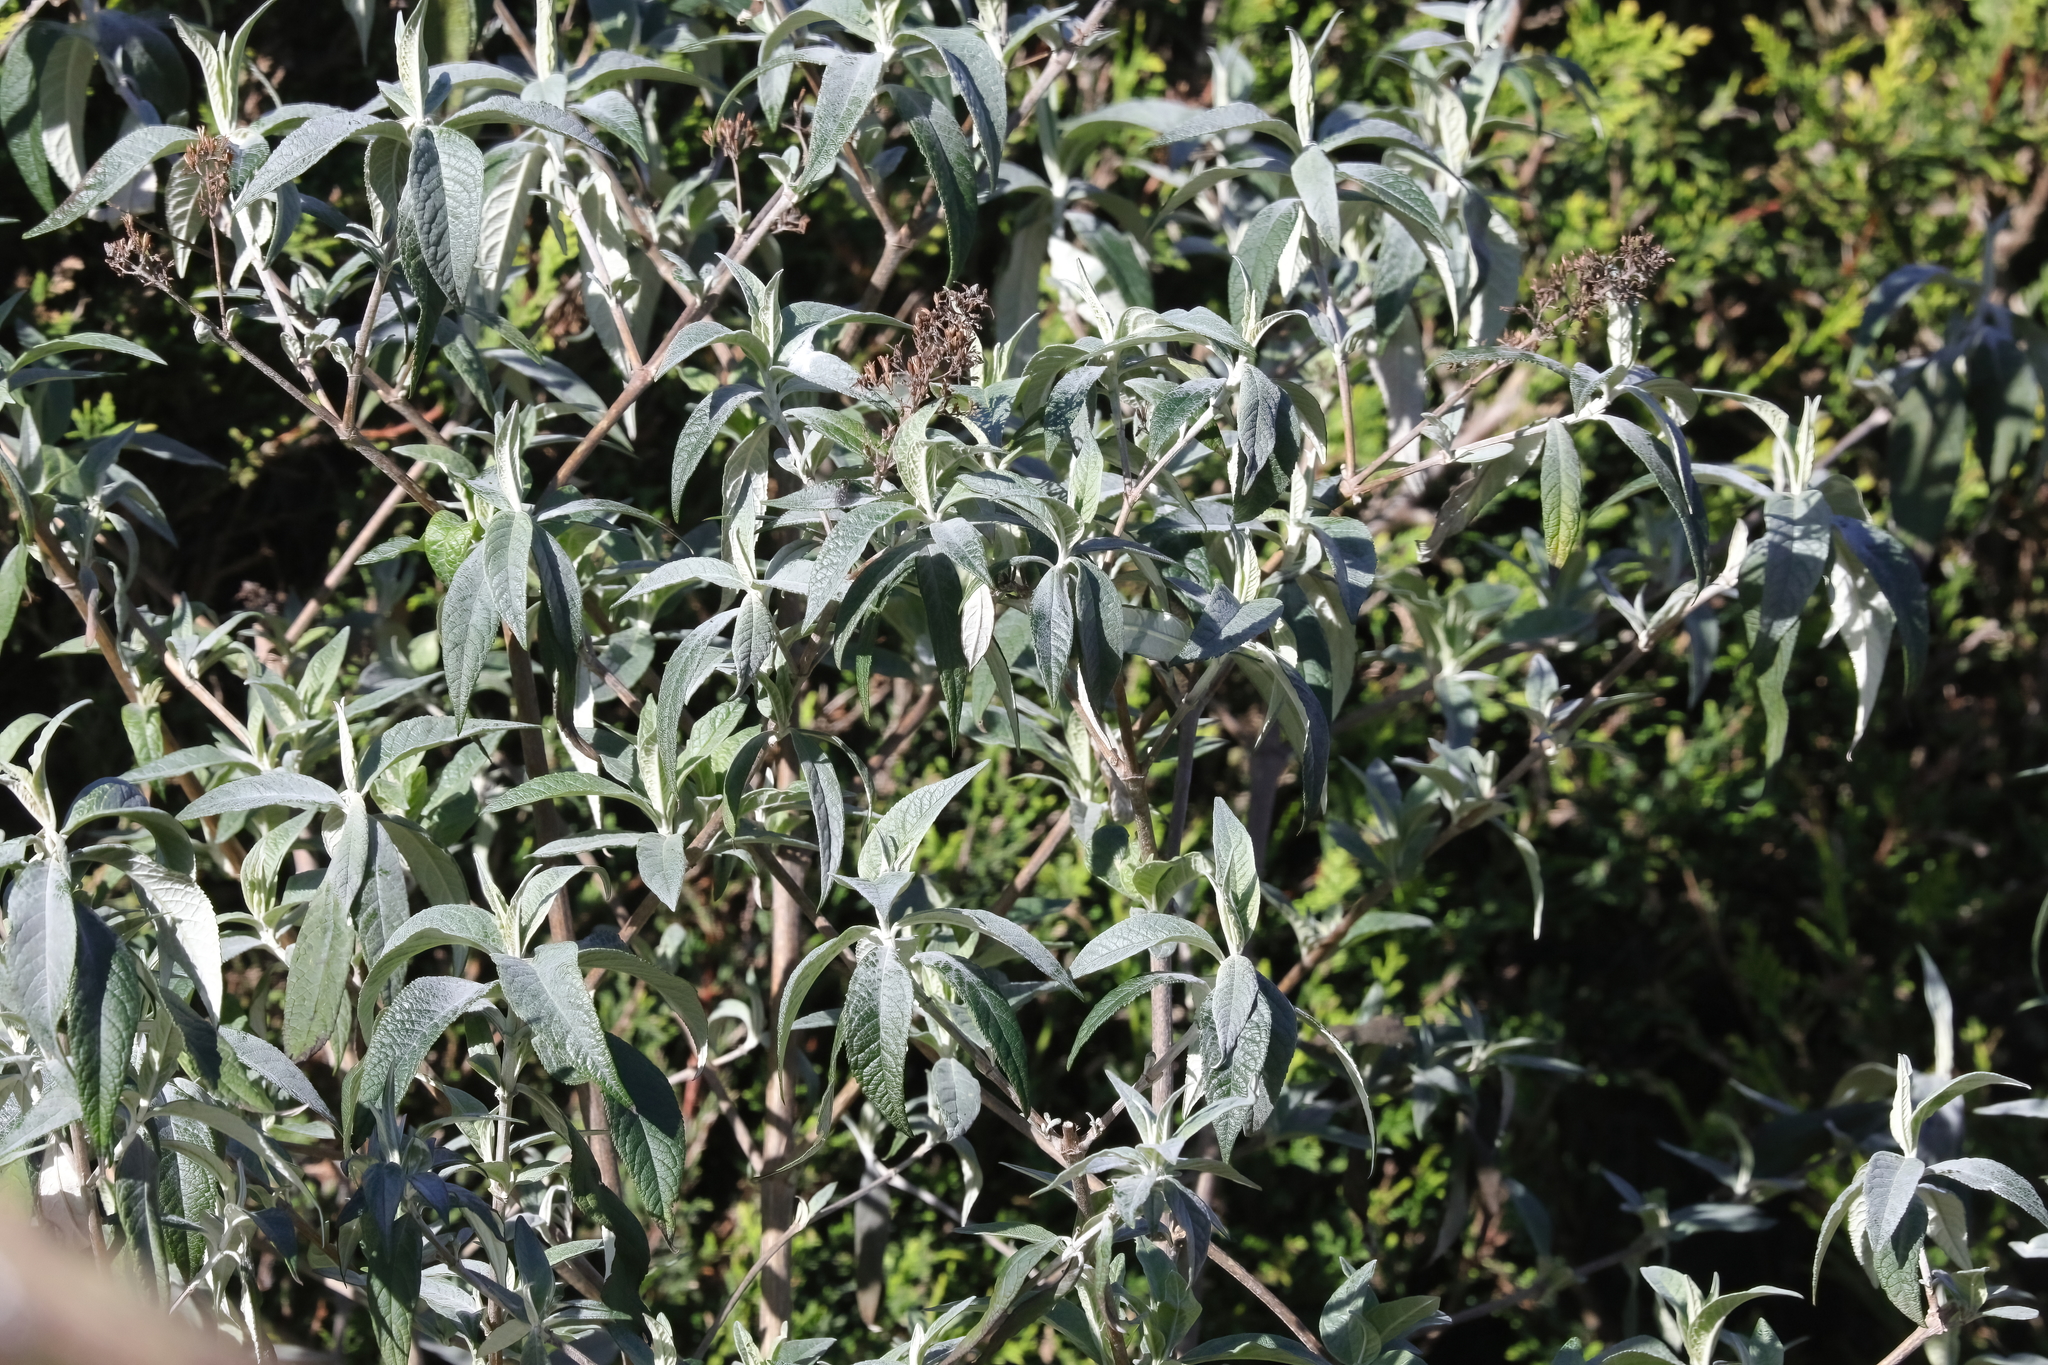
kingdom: Plantae
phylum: Tracheophyta
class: Magnoliopsida
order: Lamiales
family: Scrophulariaceae
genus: Buddleja
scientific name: Buddleja davidii
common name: Butterfly-bush
